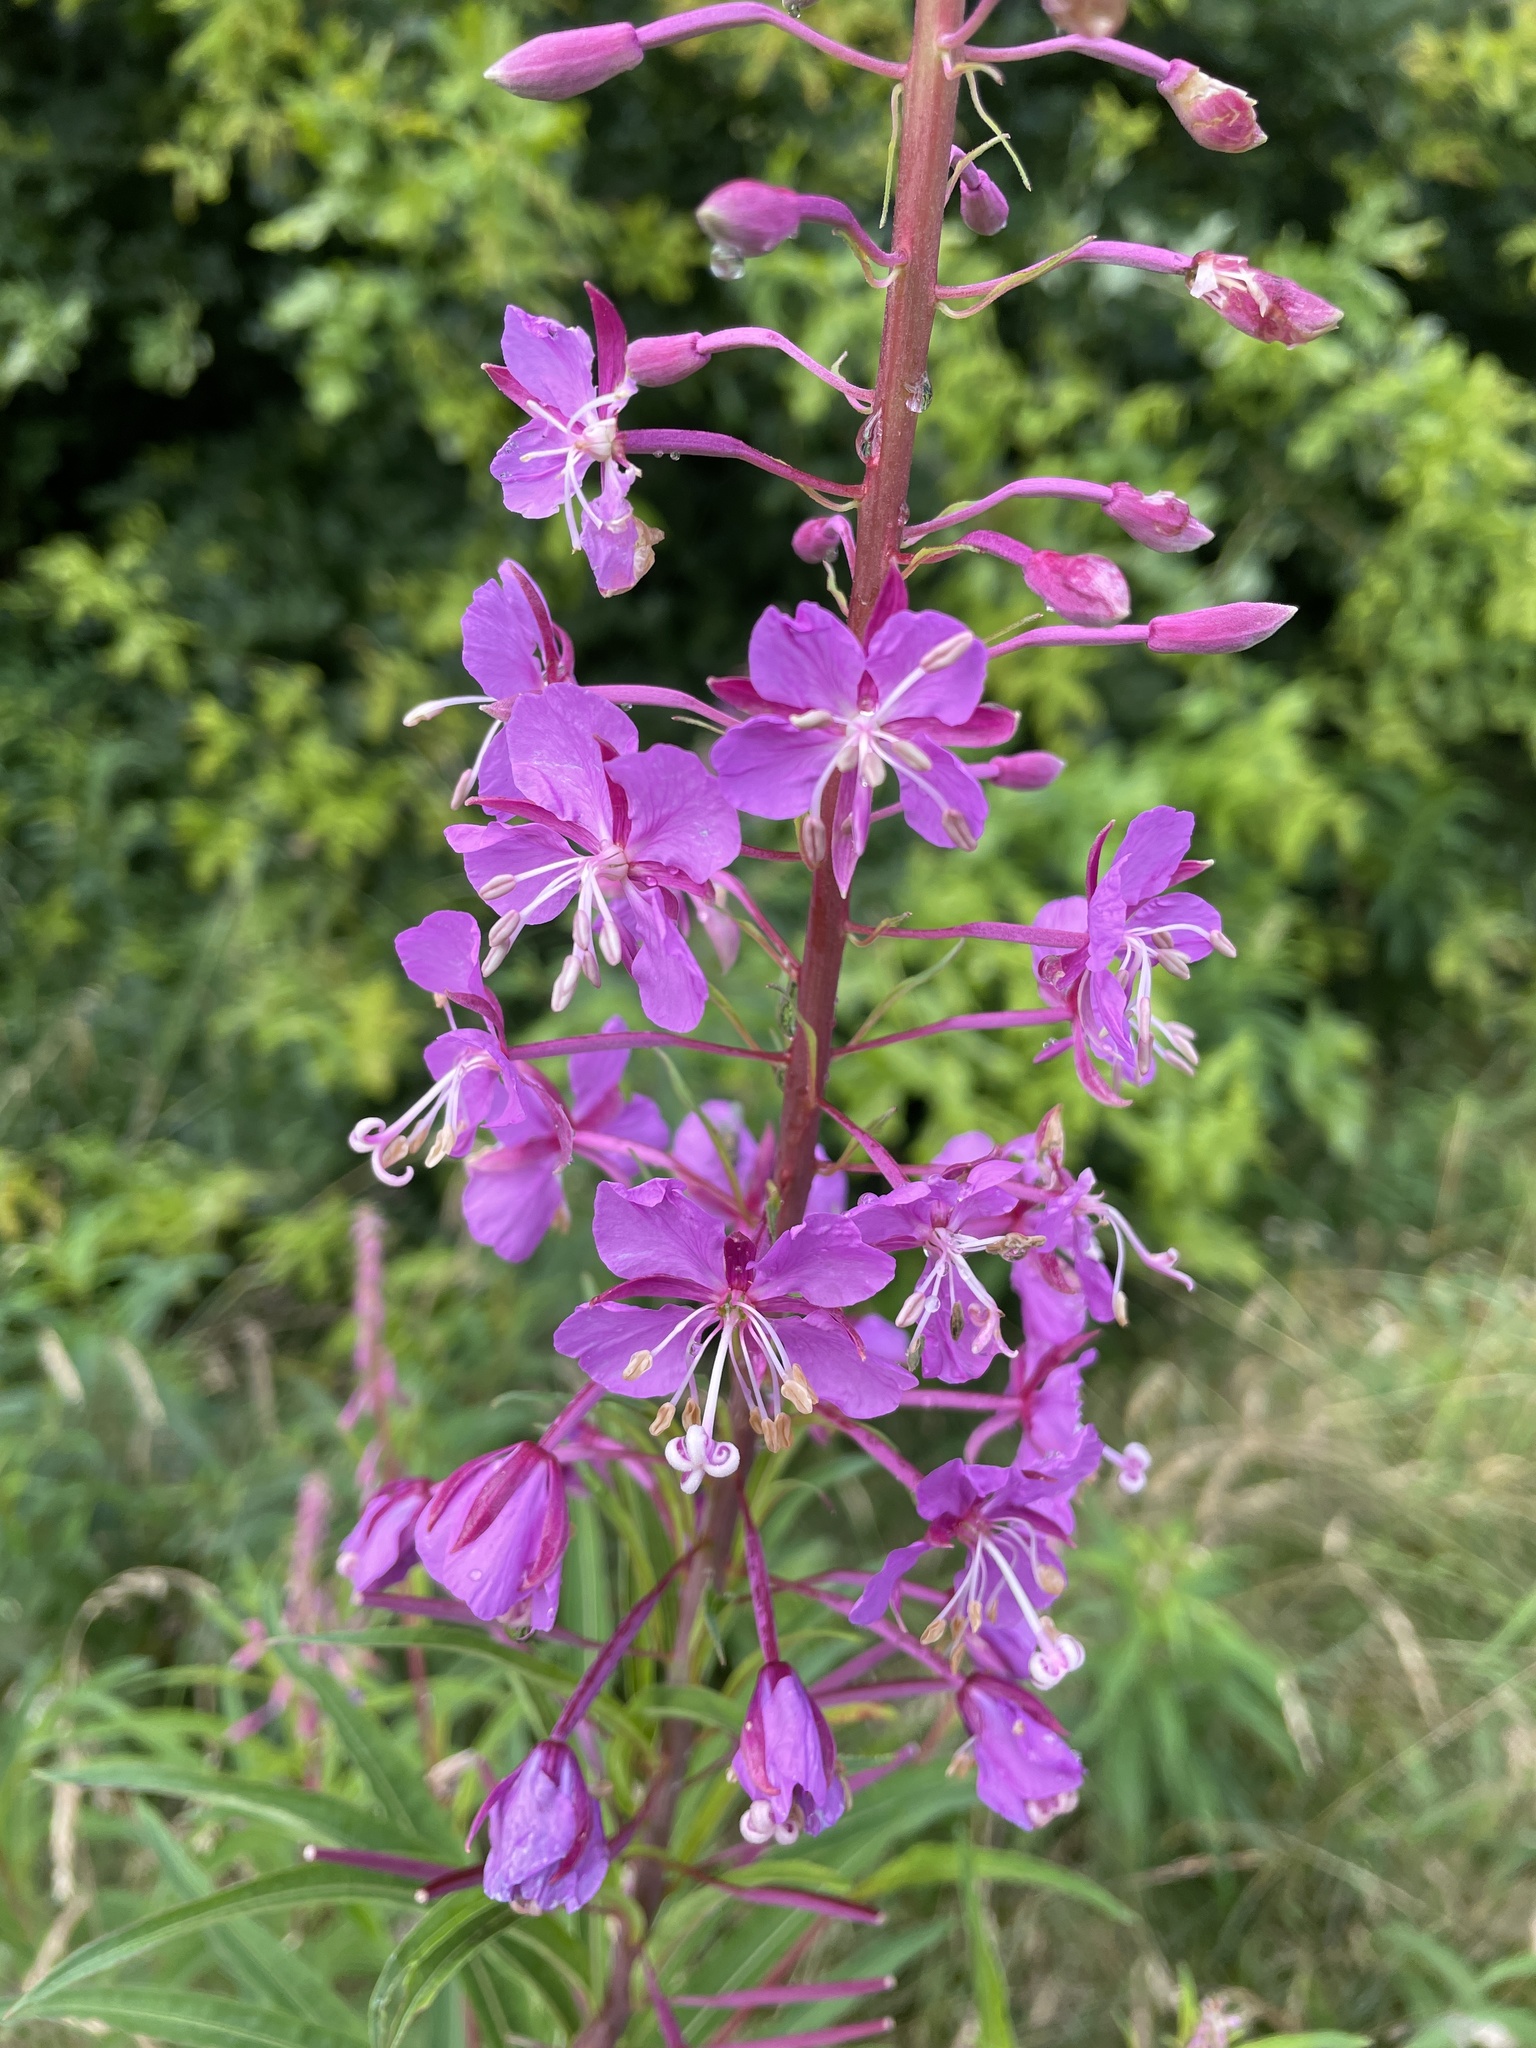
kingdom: Plantae
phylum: Tracheophyta
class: Magnoliopsida
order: Myrtales
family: Onagraceae
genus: Chamaenerion
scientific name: Chamaenerion angustifolium
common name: Fireweed
